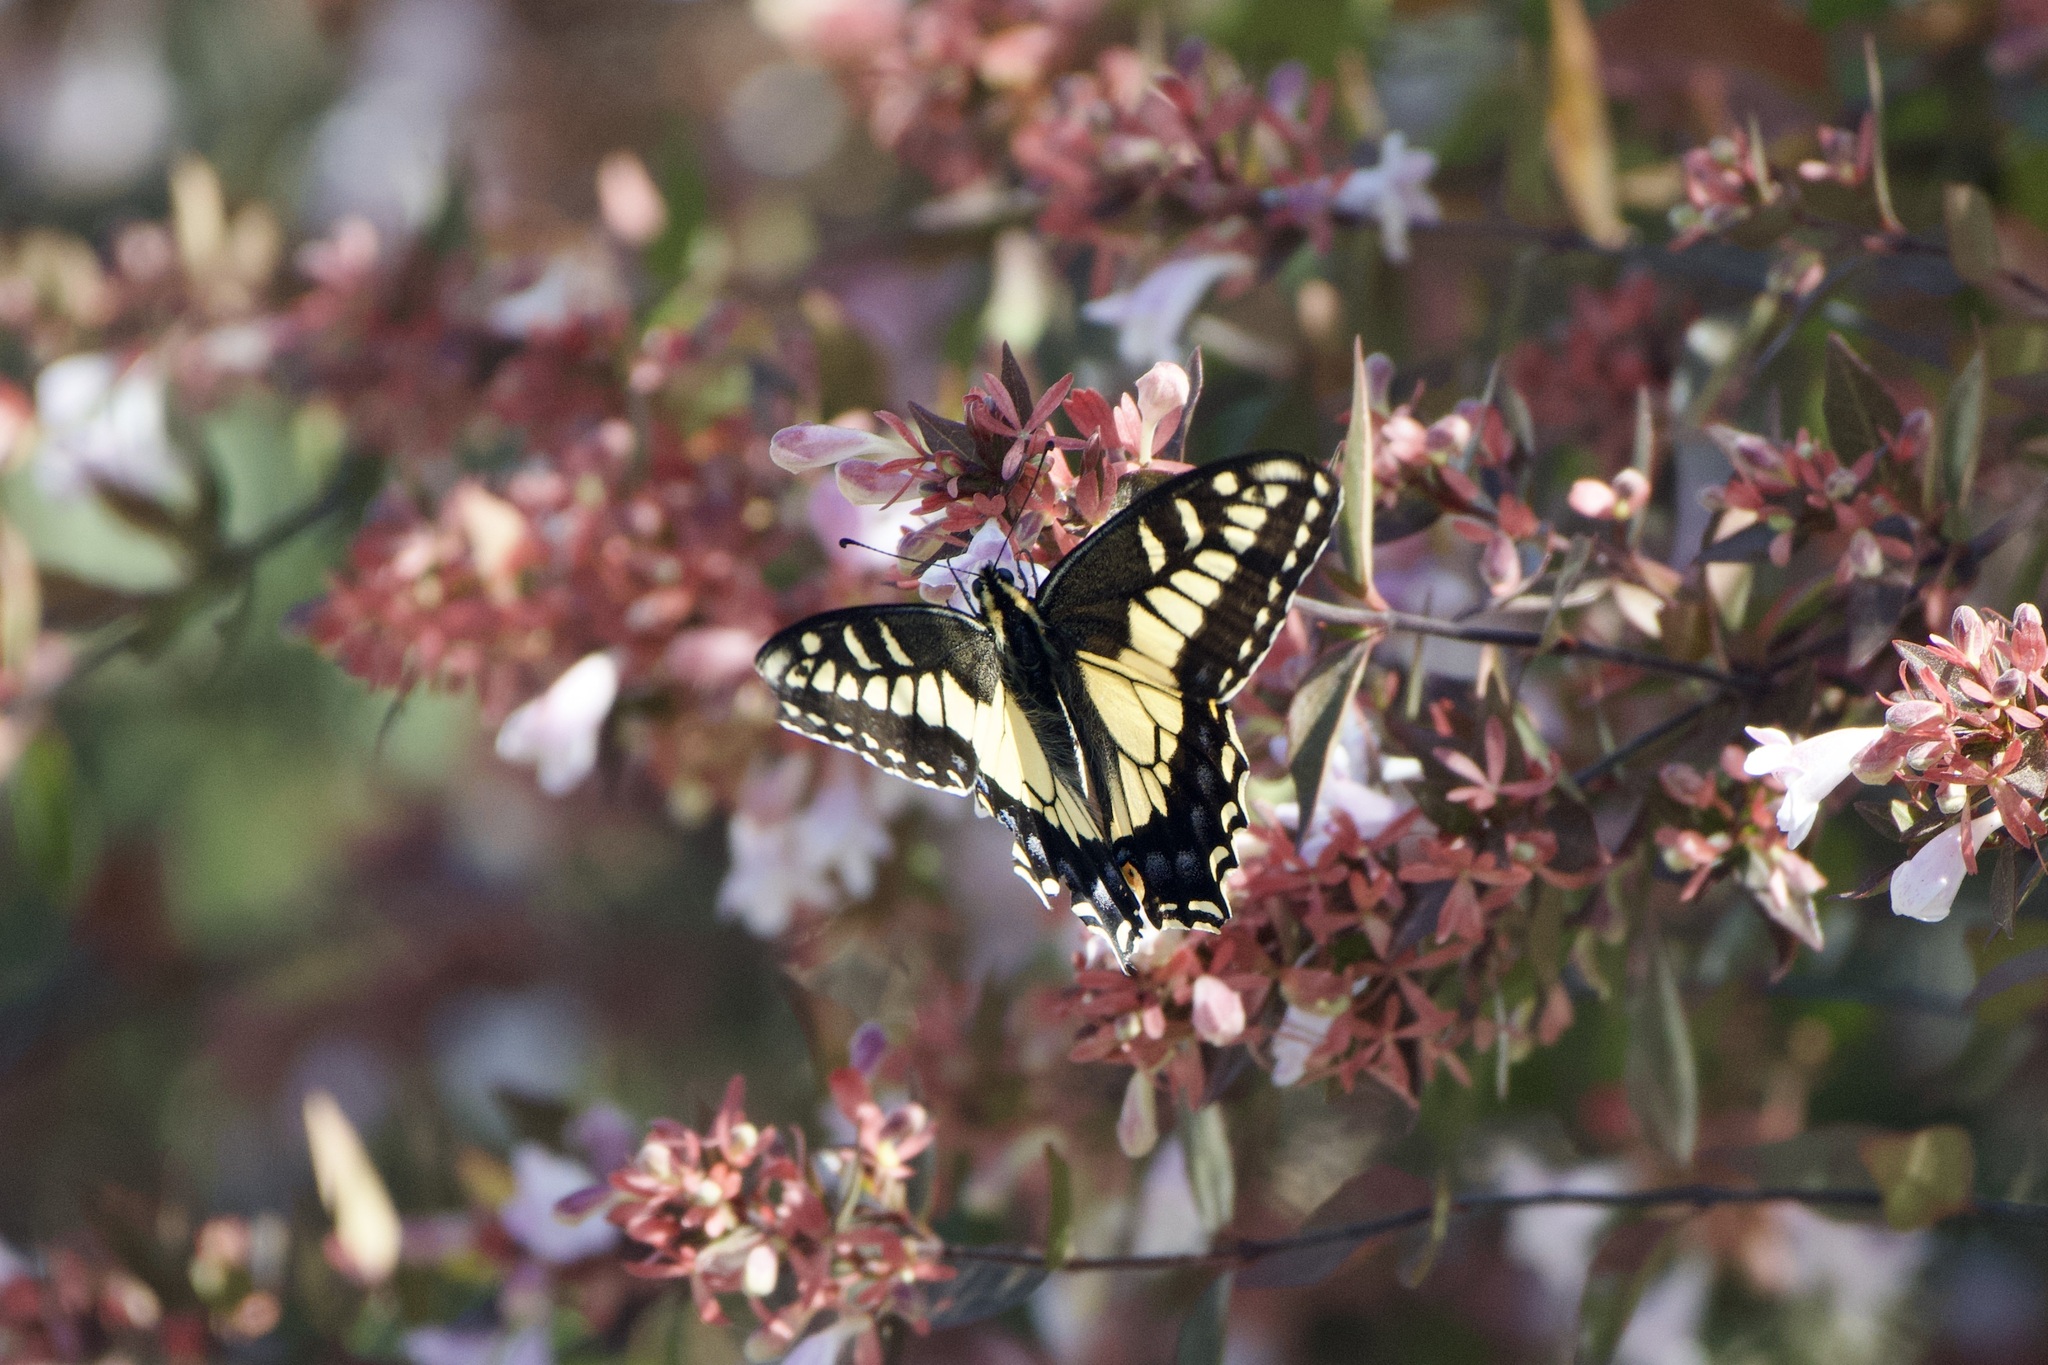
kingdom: Animalia
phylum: Arthropoda
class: Insecta
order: Lepidoptera
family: Papilionidae
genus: Papilio
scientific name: Papilio zelicaon
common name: Anise swallowtail
